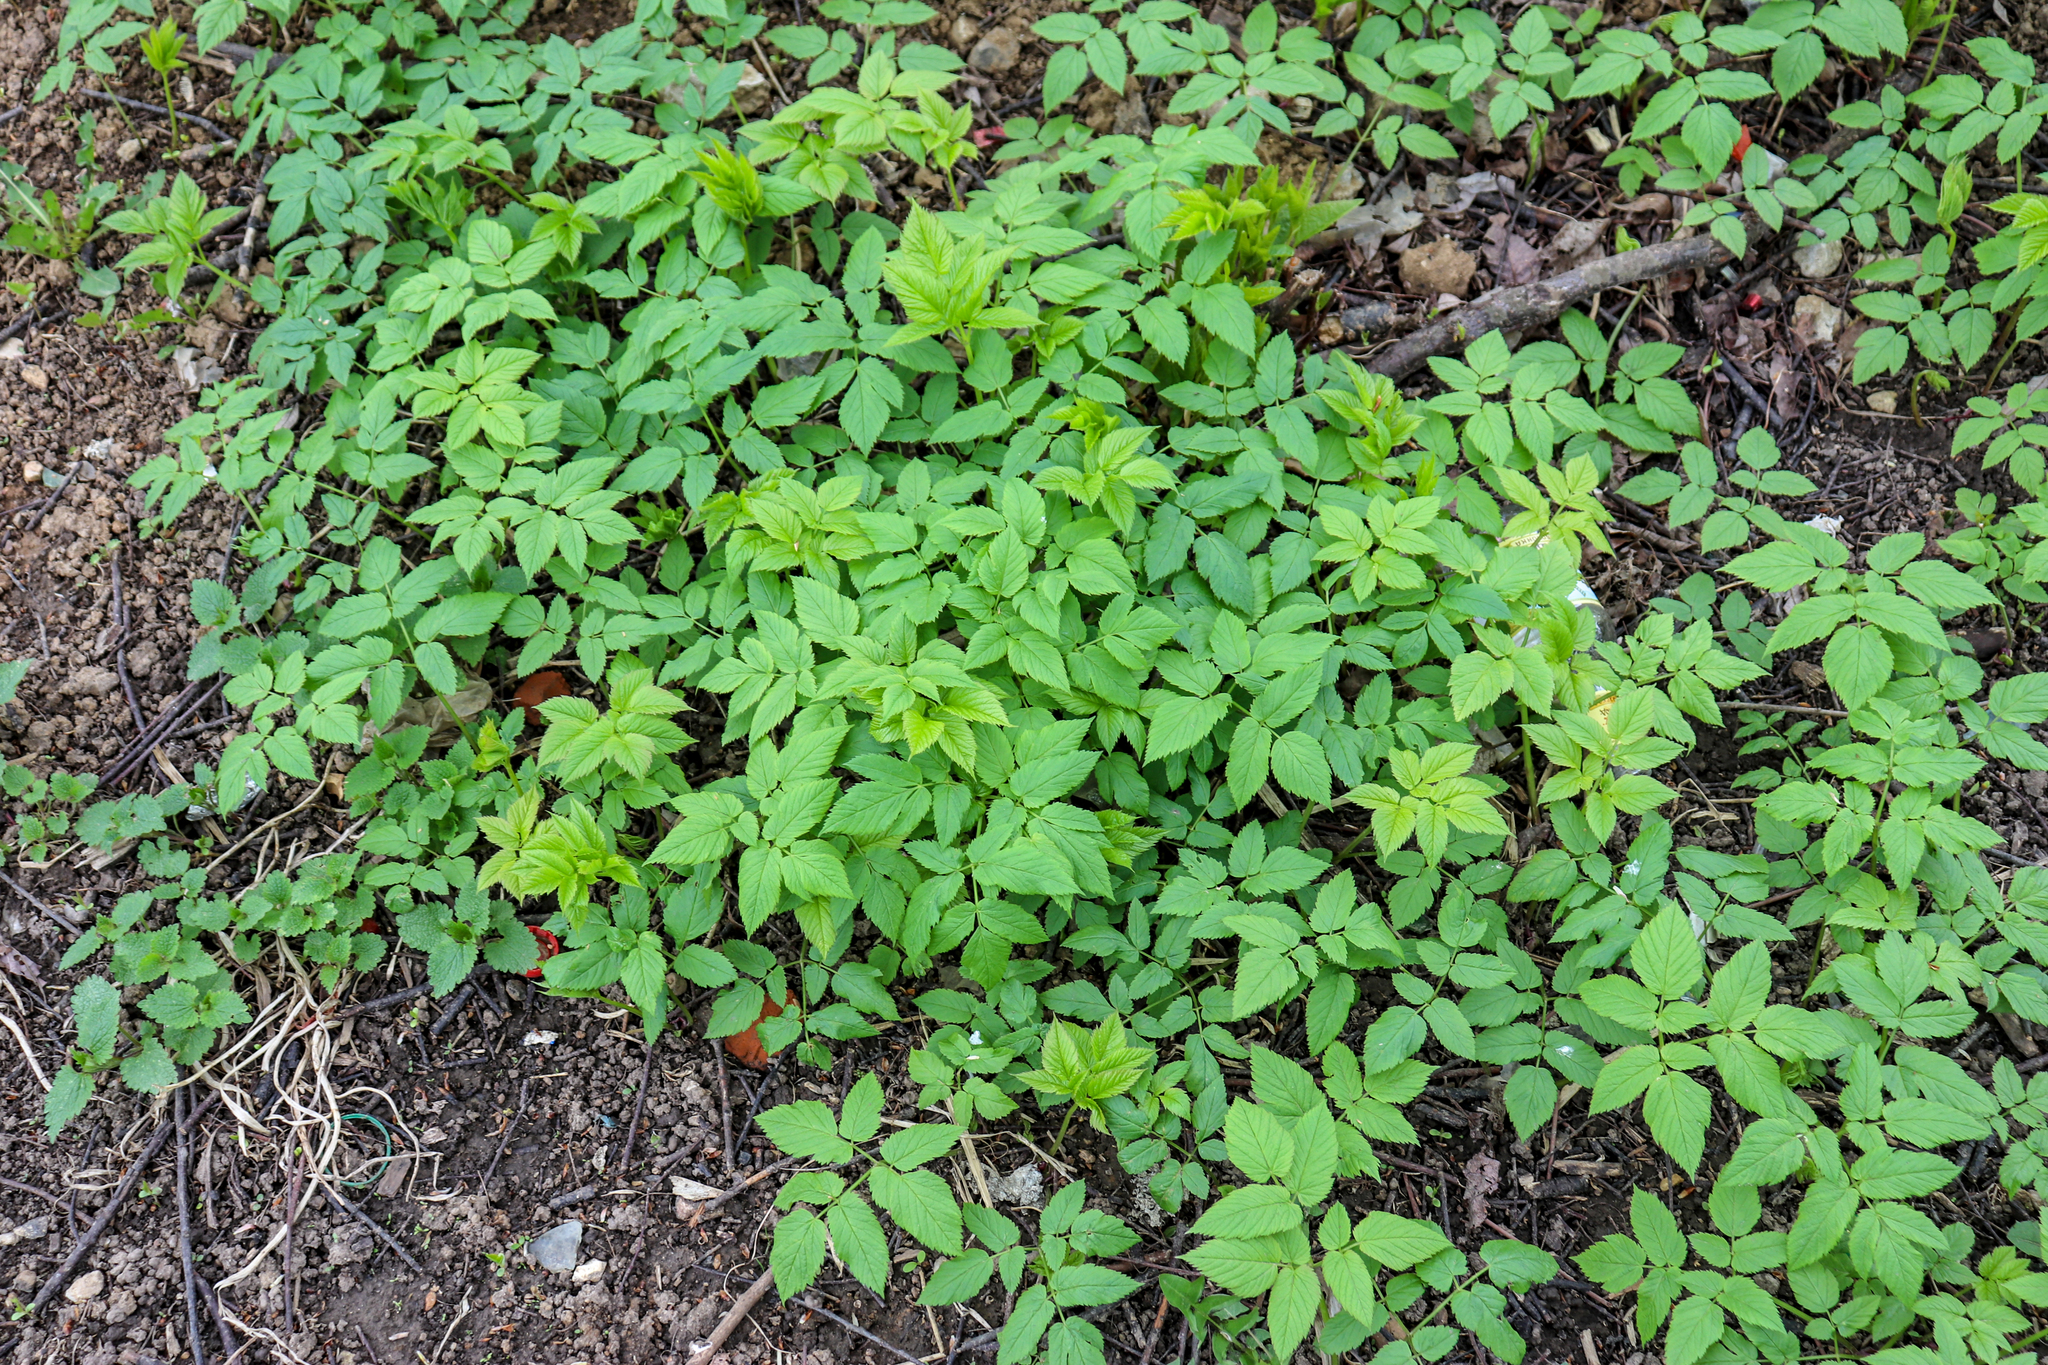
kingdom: Plantae
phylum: Tracheophyta
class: Magnoliopsida
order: Apiales
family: Apiaceae
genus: Aegopodium
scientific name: Aegopodium podagraria
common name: Ground-elder
